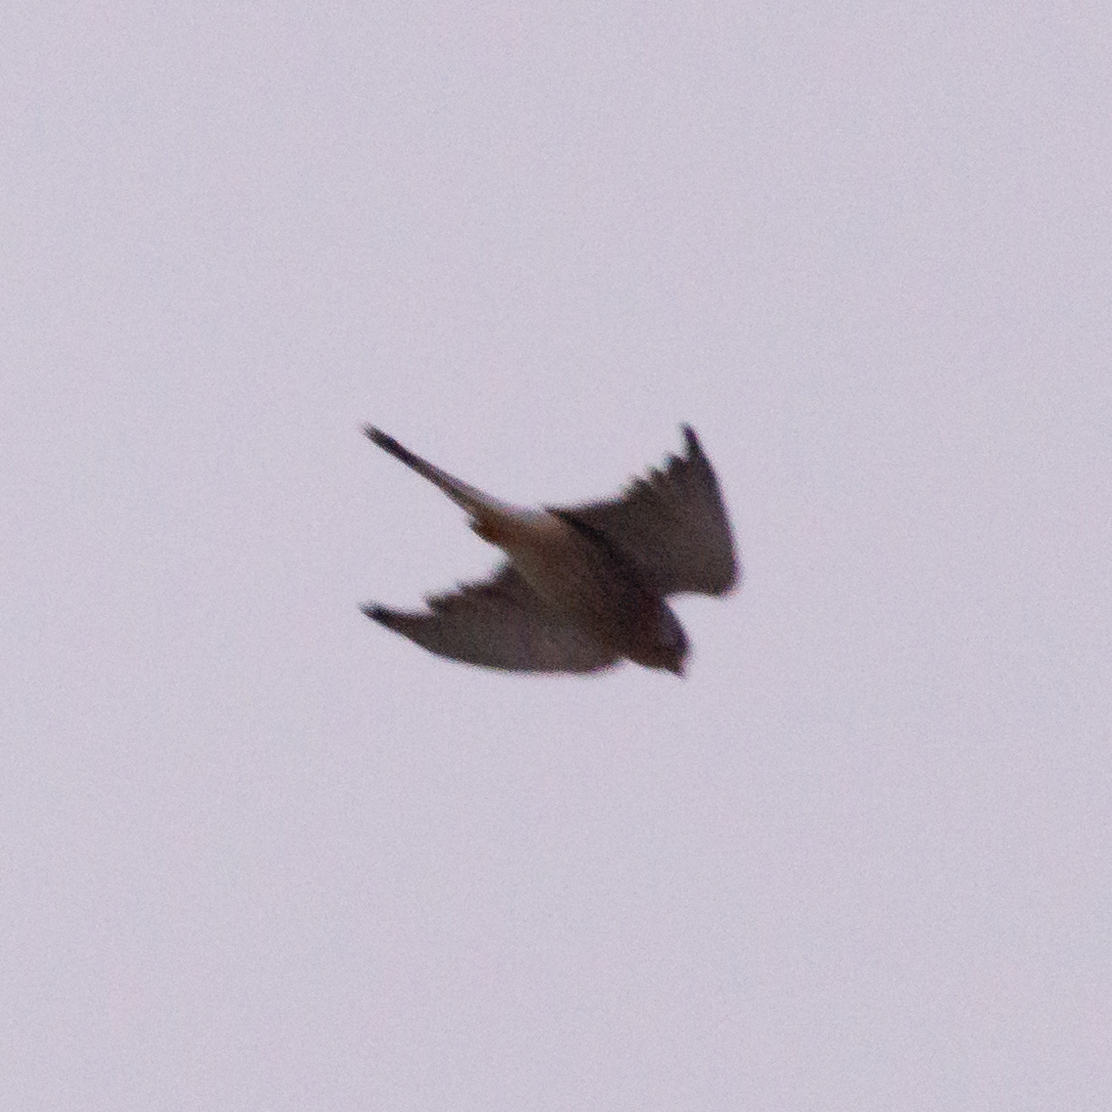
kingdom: Animalia
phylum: Chordata
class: Aves
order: Falconiformes
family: Falconidae
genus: Falco
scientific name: Falco tinnunculus
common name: Common kestrel
